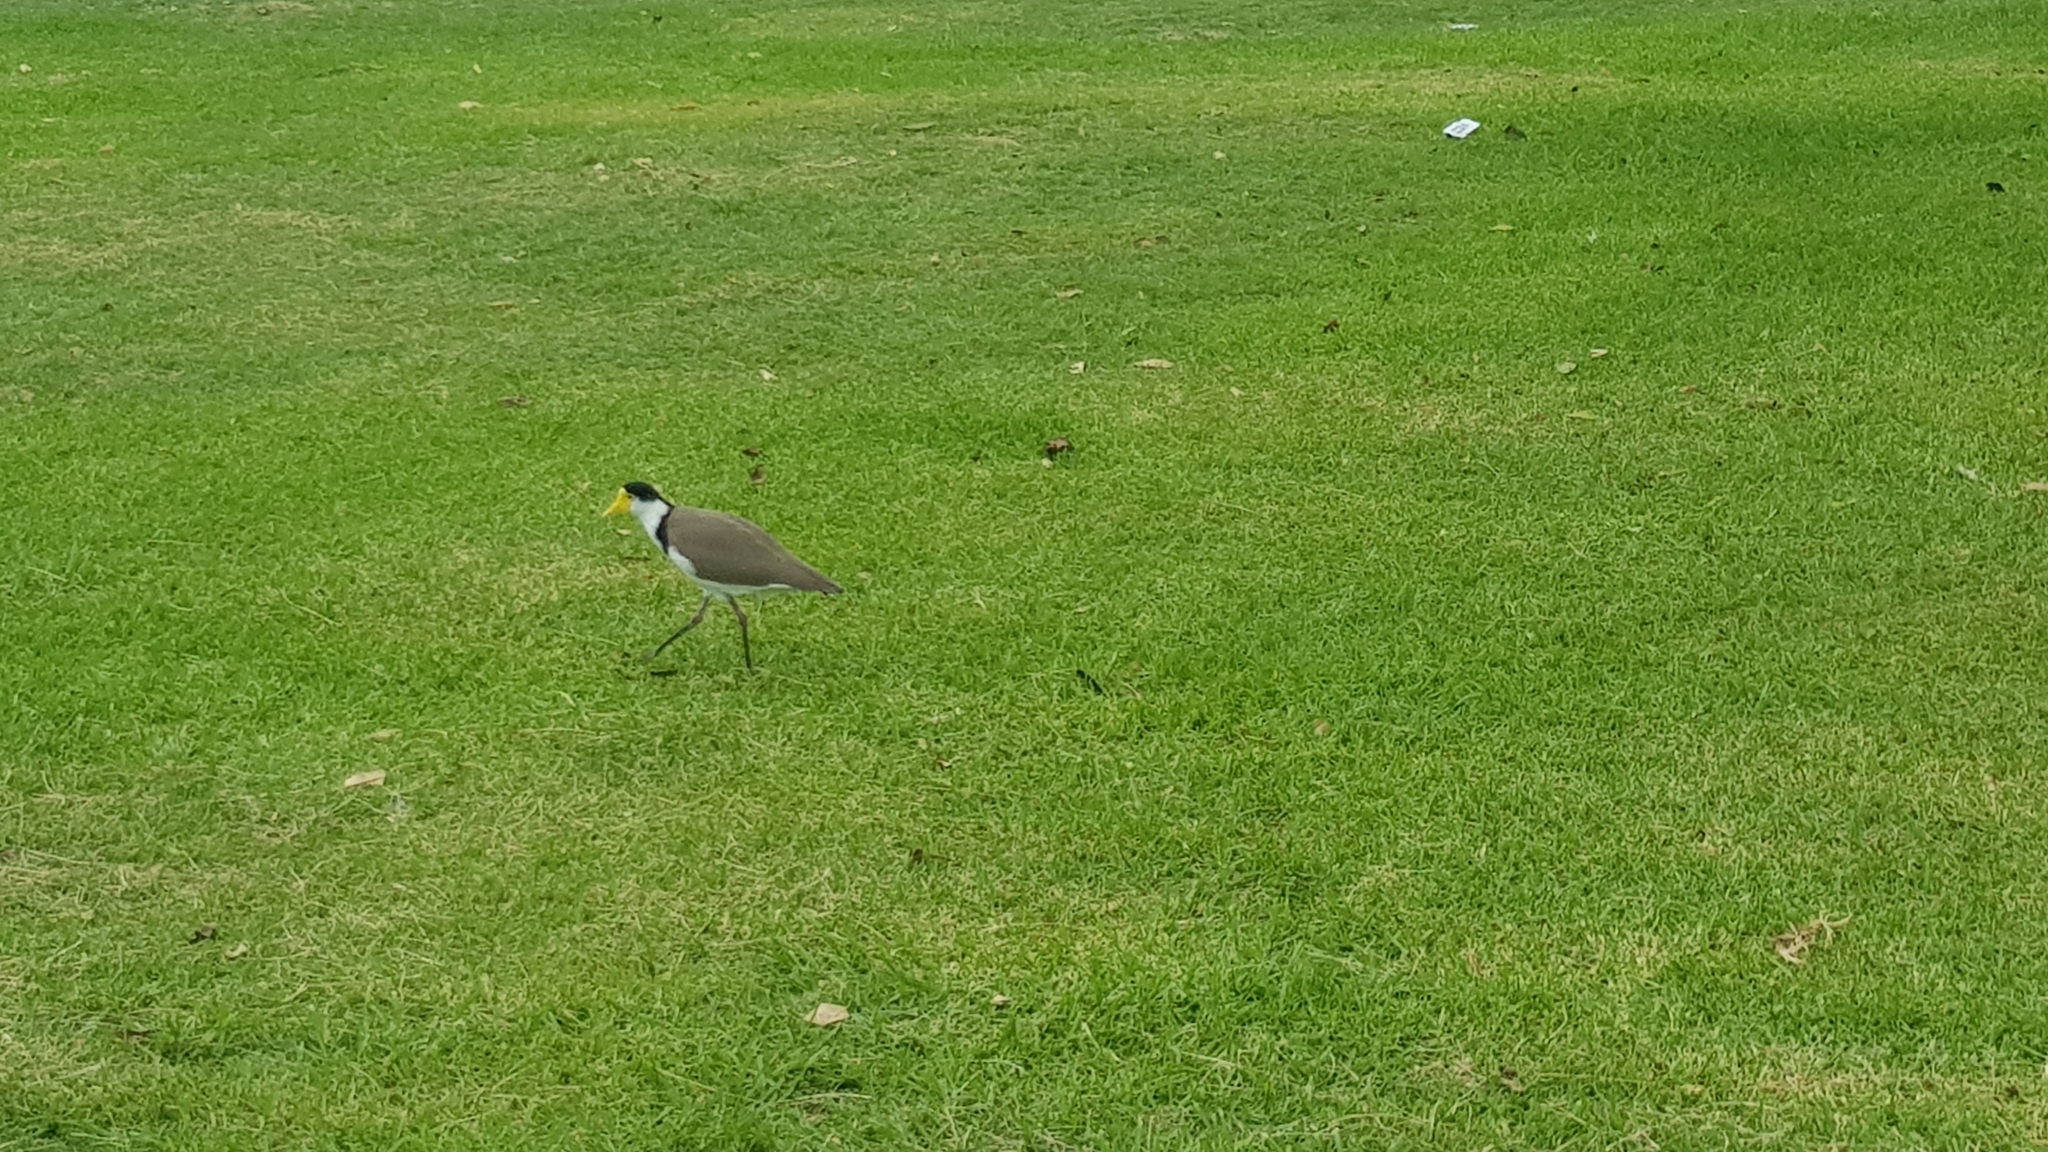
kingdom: Animalia
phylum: Chordata
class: Aves
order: Charadriiformes
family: Charadriidae
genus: Vanellus
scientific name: Vanellus miles
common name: Masked lapwing
